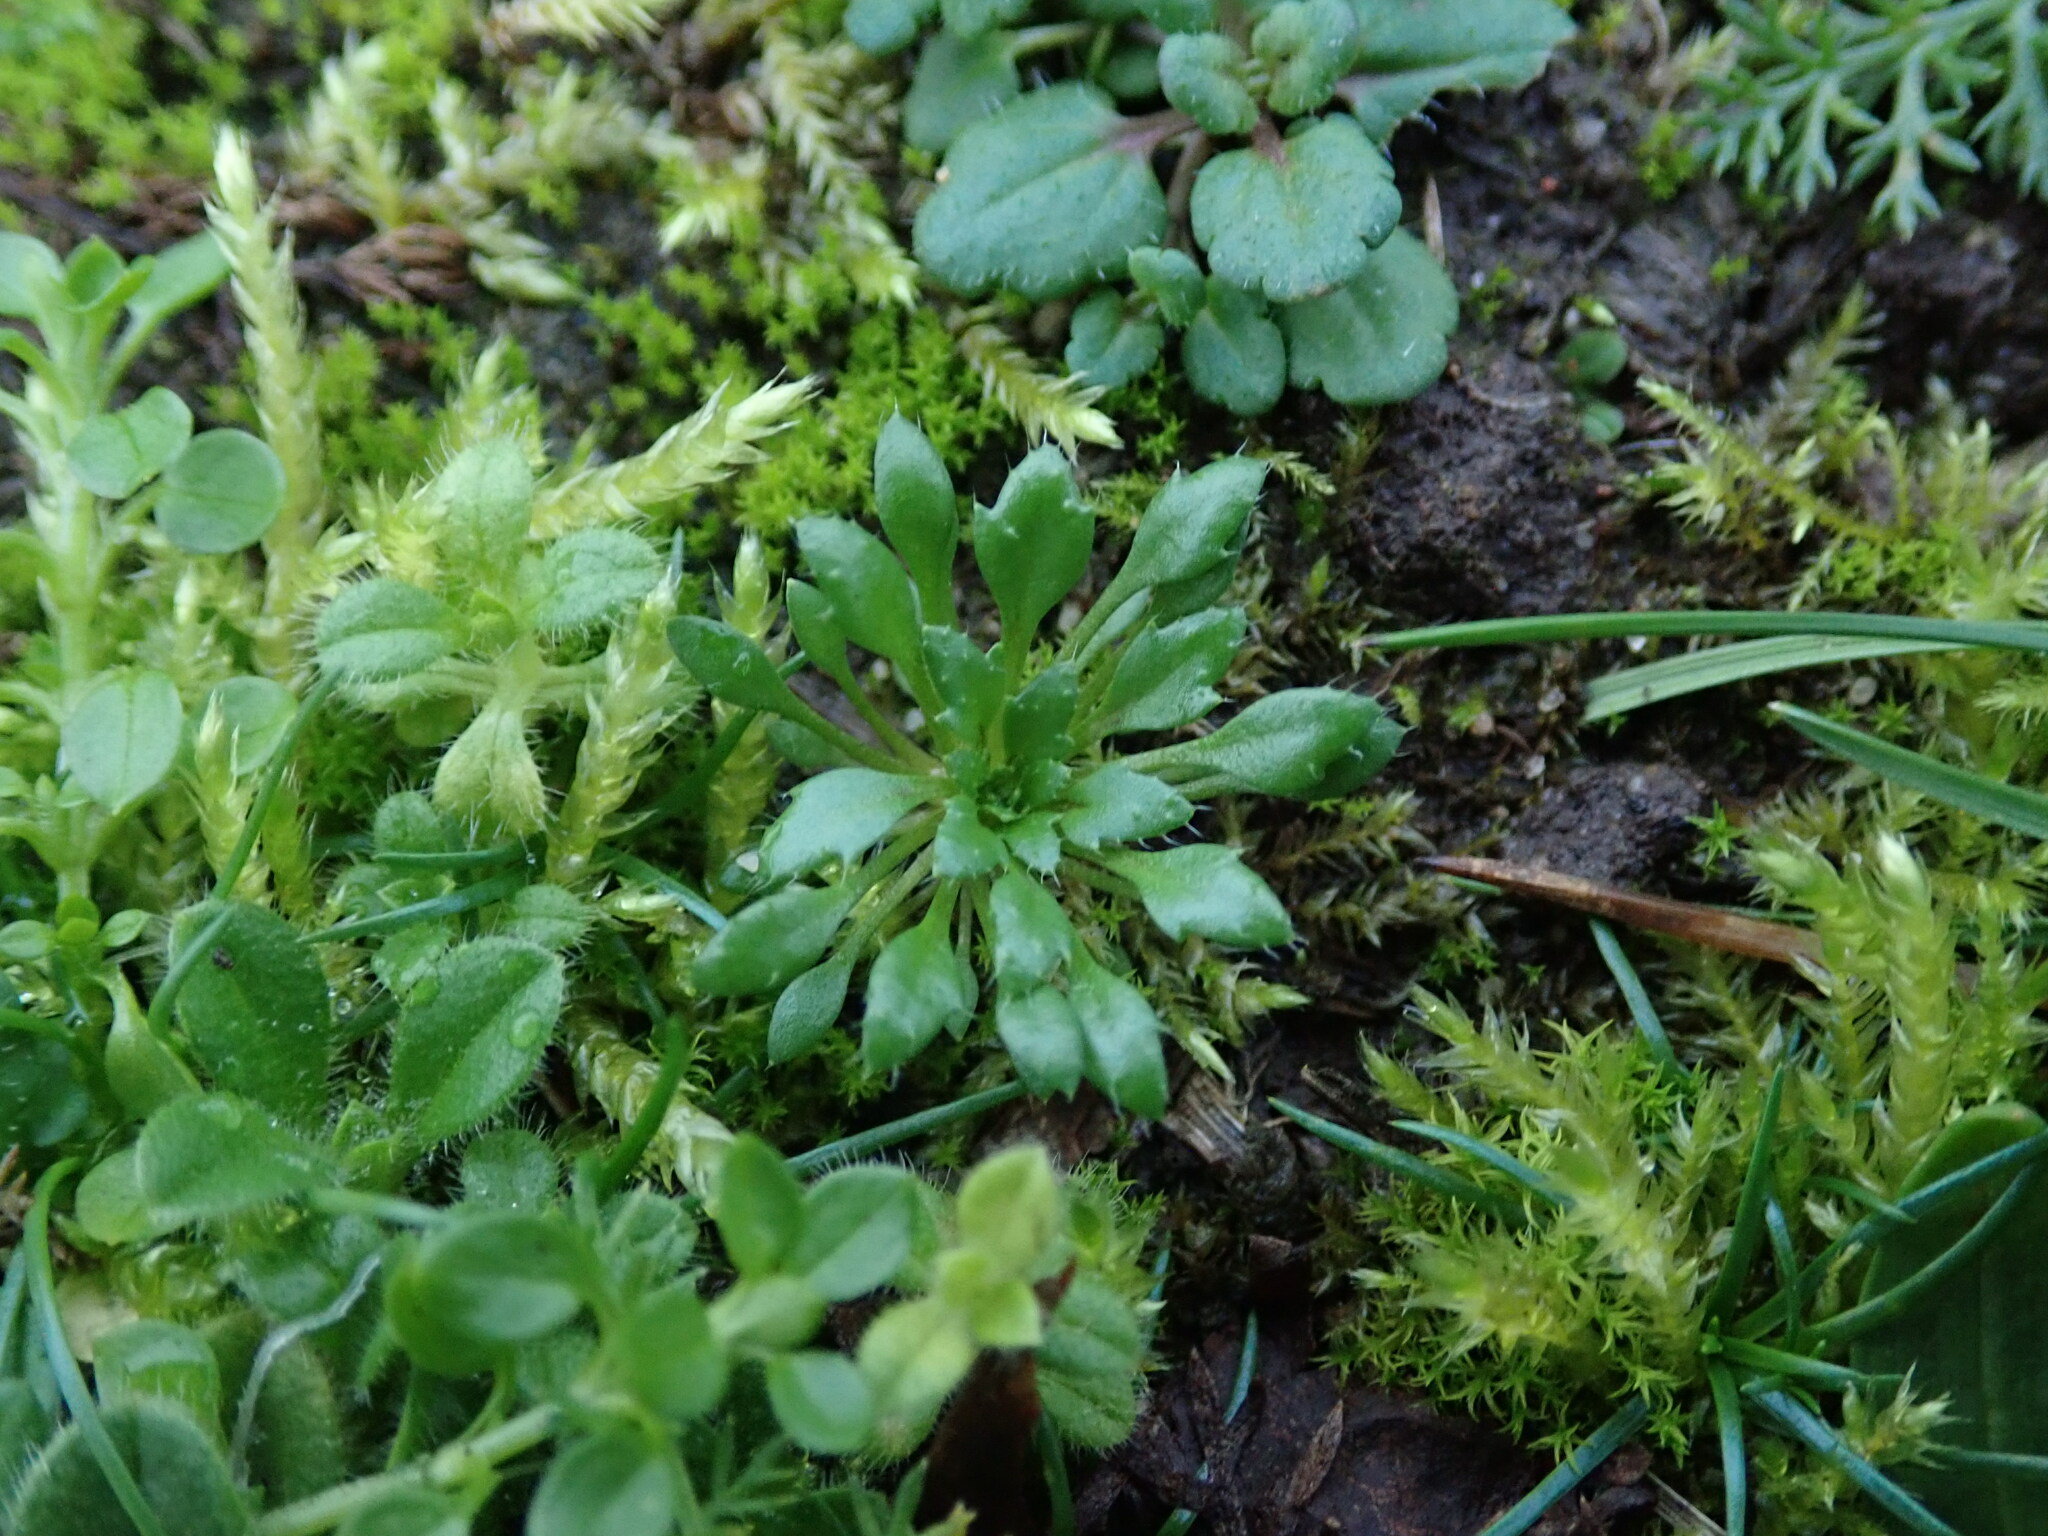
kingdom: Plantae
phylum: Tracheophyta
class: Magnoliopsida
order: Brassicales
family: Brassicaceae
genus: Draba
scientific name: Draba verna
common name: Spring draba
